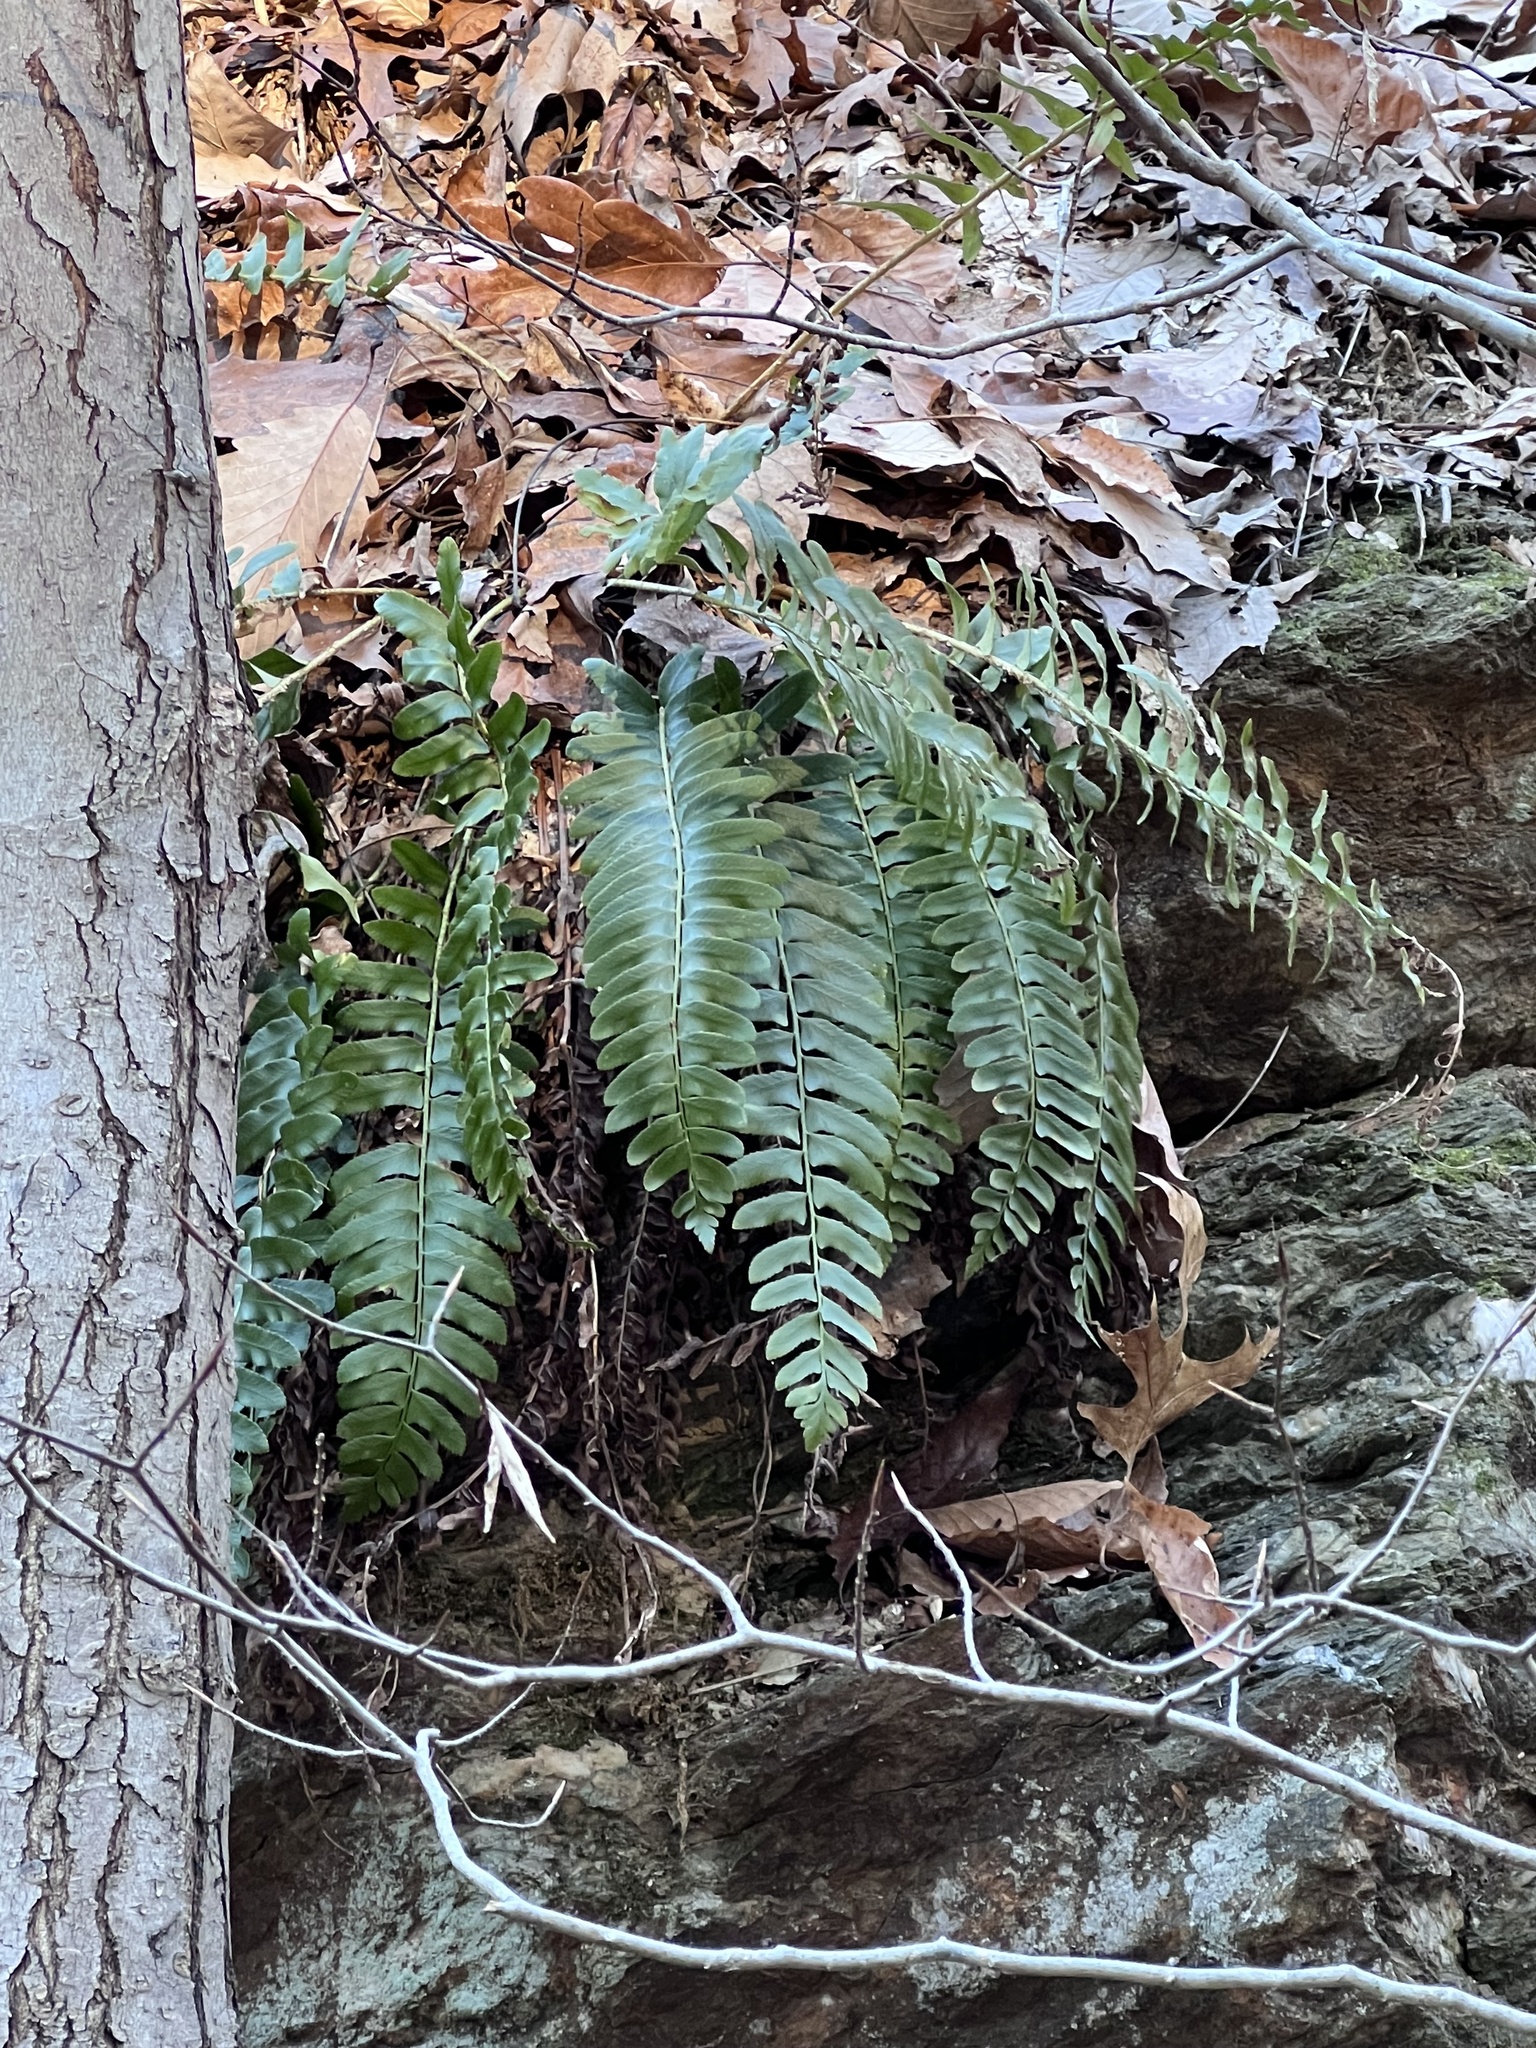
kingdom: Plantae
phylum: Tracheophyta
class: Polypodiopsida
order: Polypodiales
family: Dryopteridaceae
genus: Polystichum
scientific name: Polystichum acrostichoides
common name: Christmas fern
